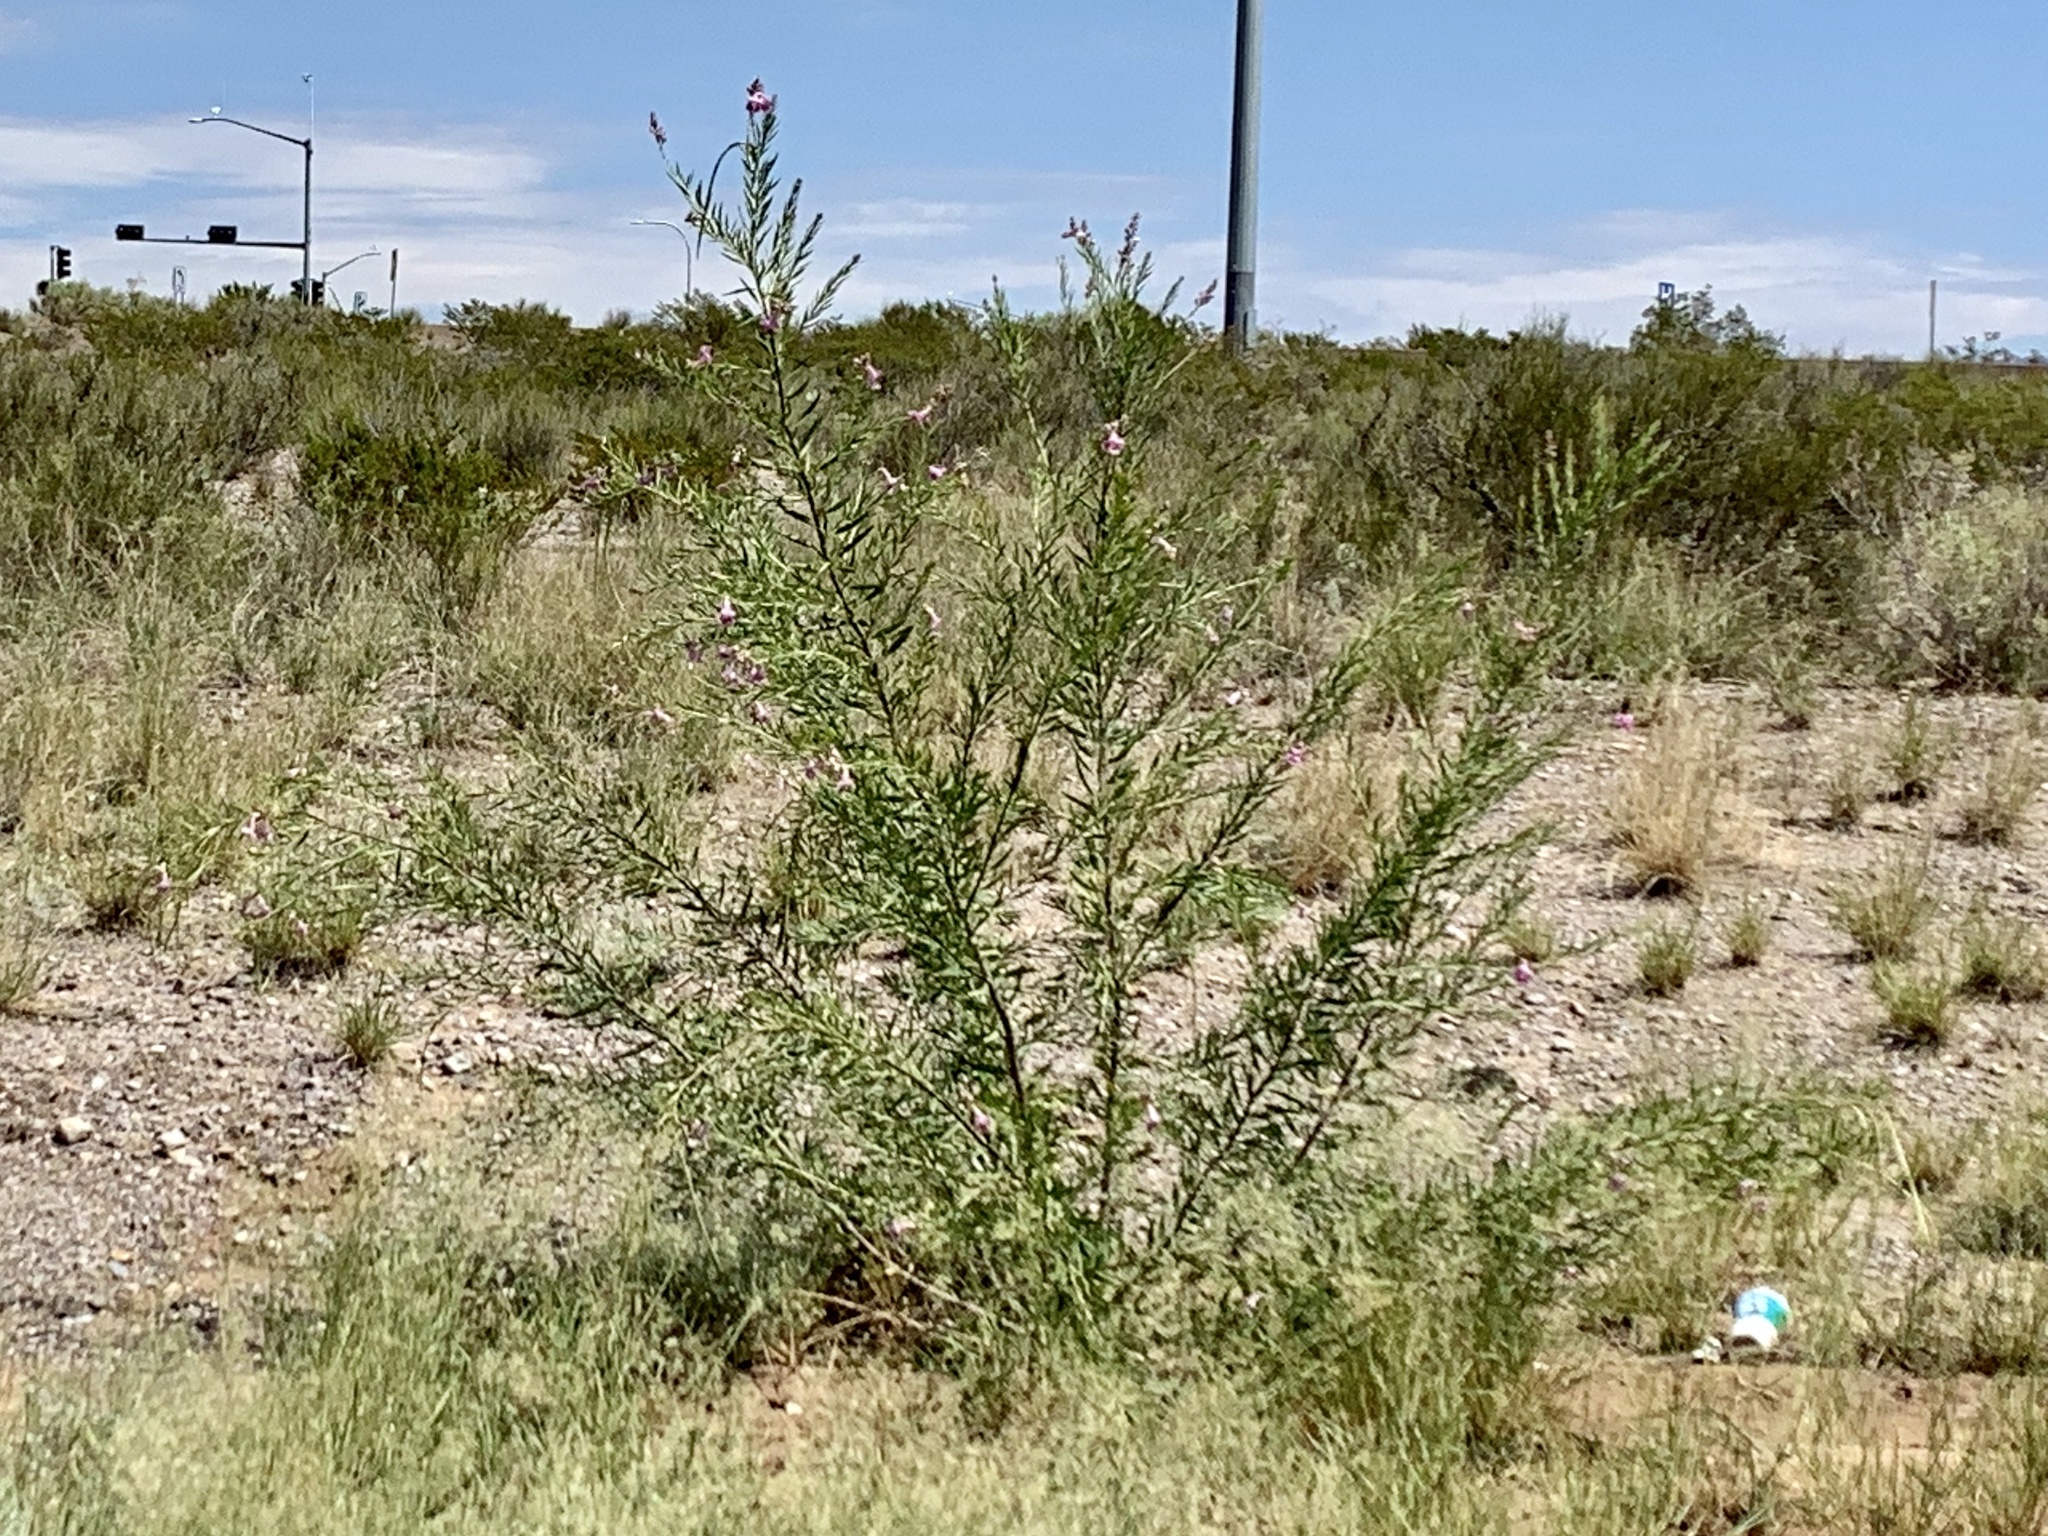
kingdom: Plantae
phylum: Tracheophyta
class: Magnoliopsida
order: Lamiales
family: Bignoniaceae
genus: Chilopsis
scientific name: Chilopsis linearis
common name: Desert-willow
